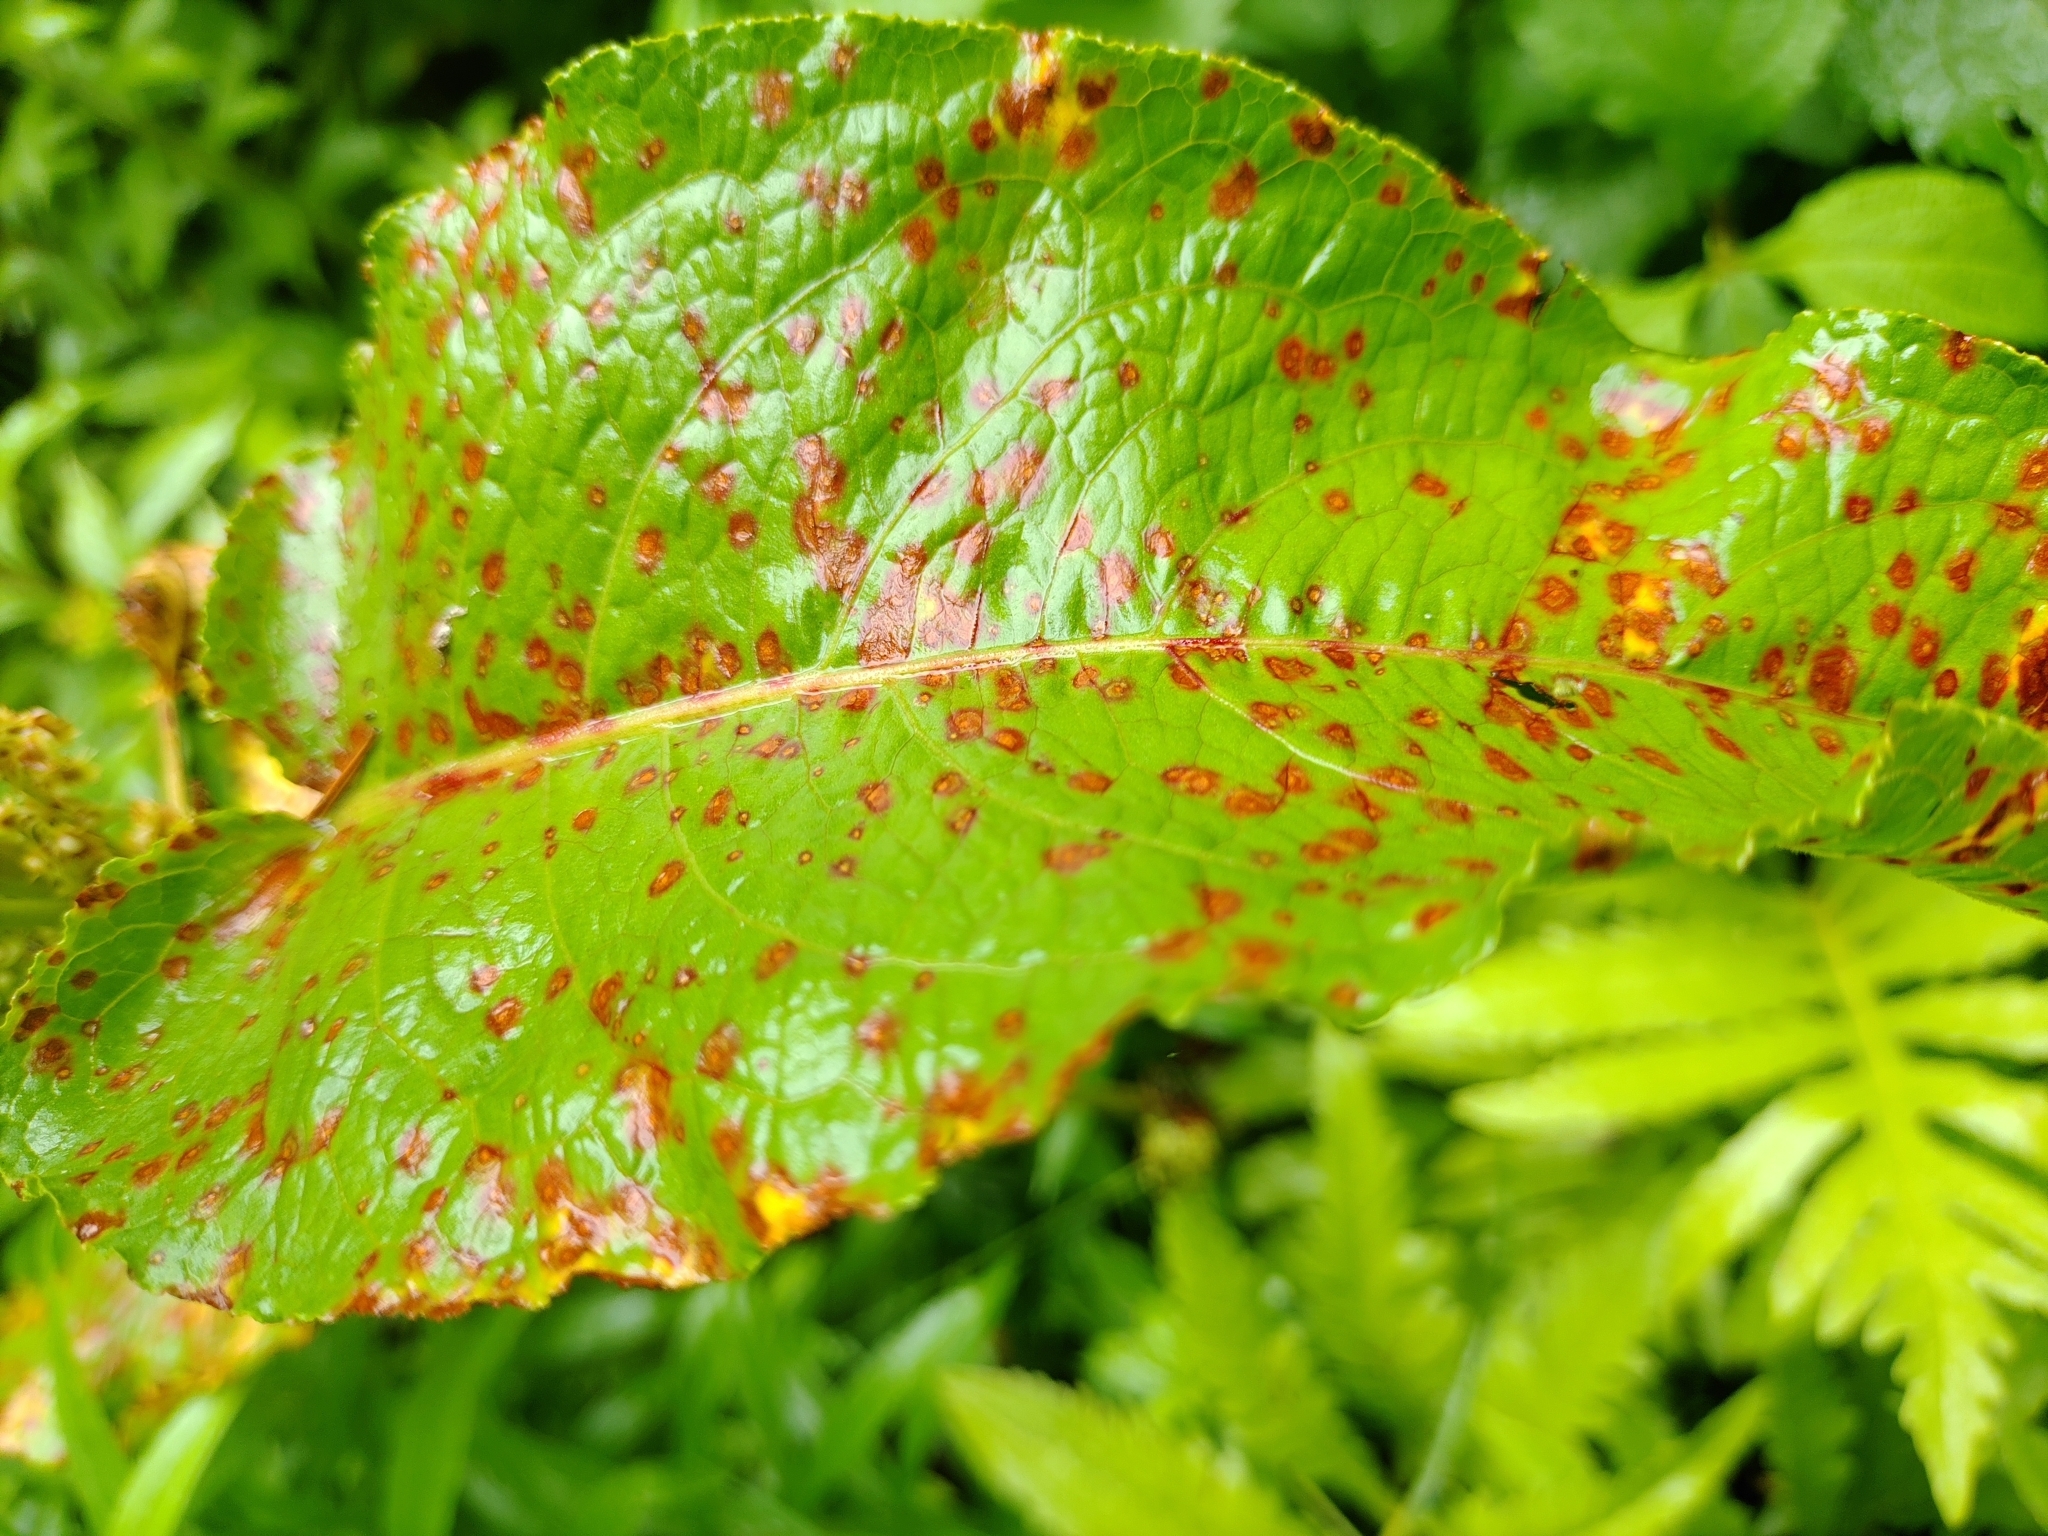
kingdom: Fungi
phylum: Ascomycota
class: Dothideomycetes
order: Mycosphaerellales
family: Mycosphaerellaceae
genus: Ramularia
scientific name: Ramularia rubella
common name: Red dock spot
